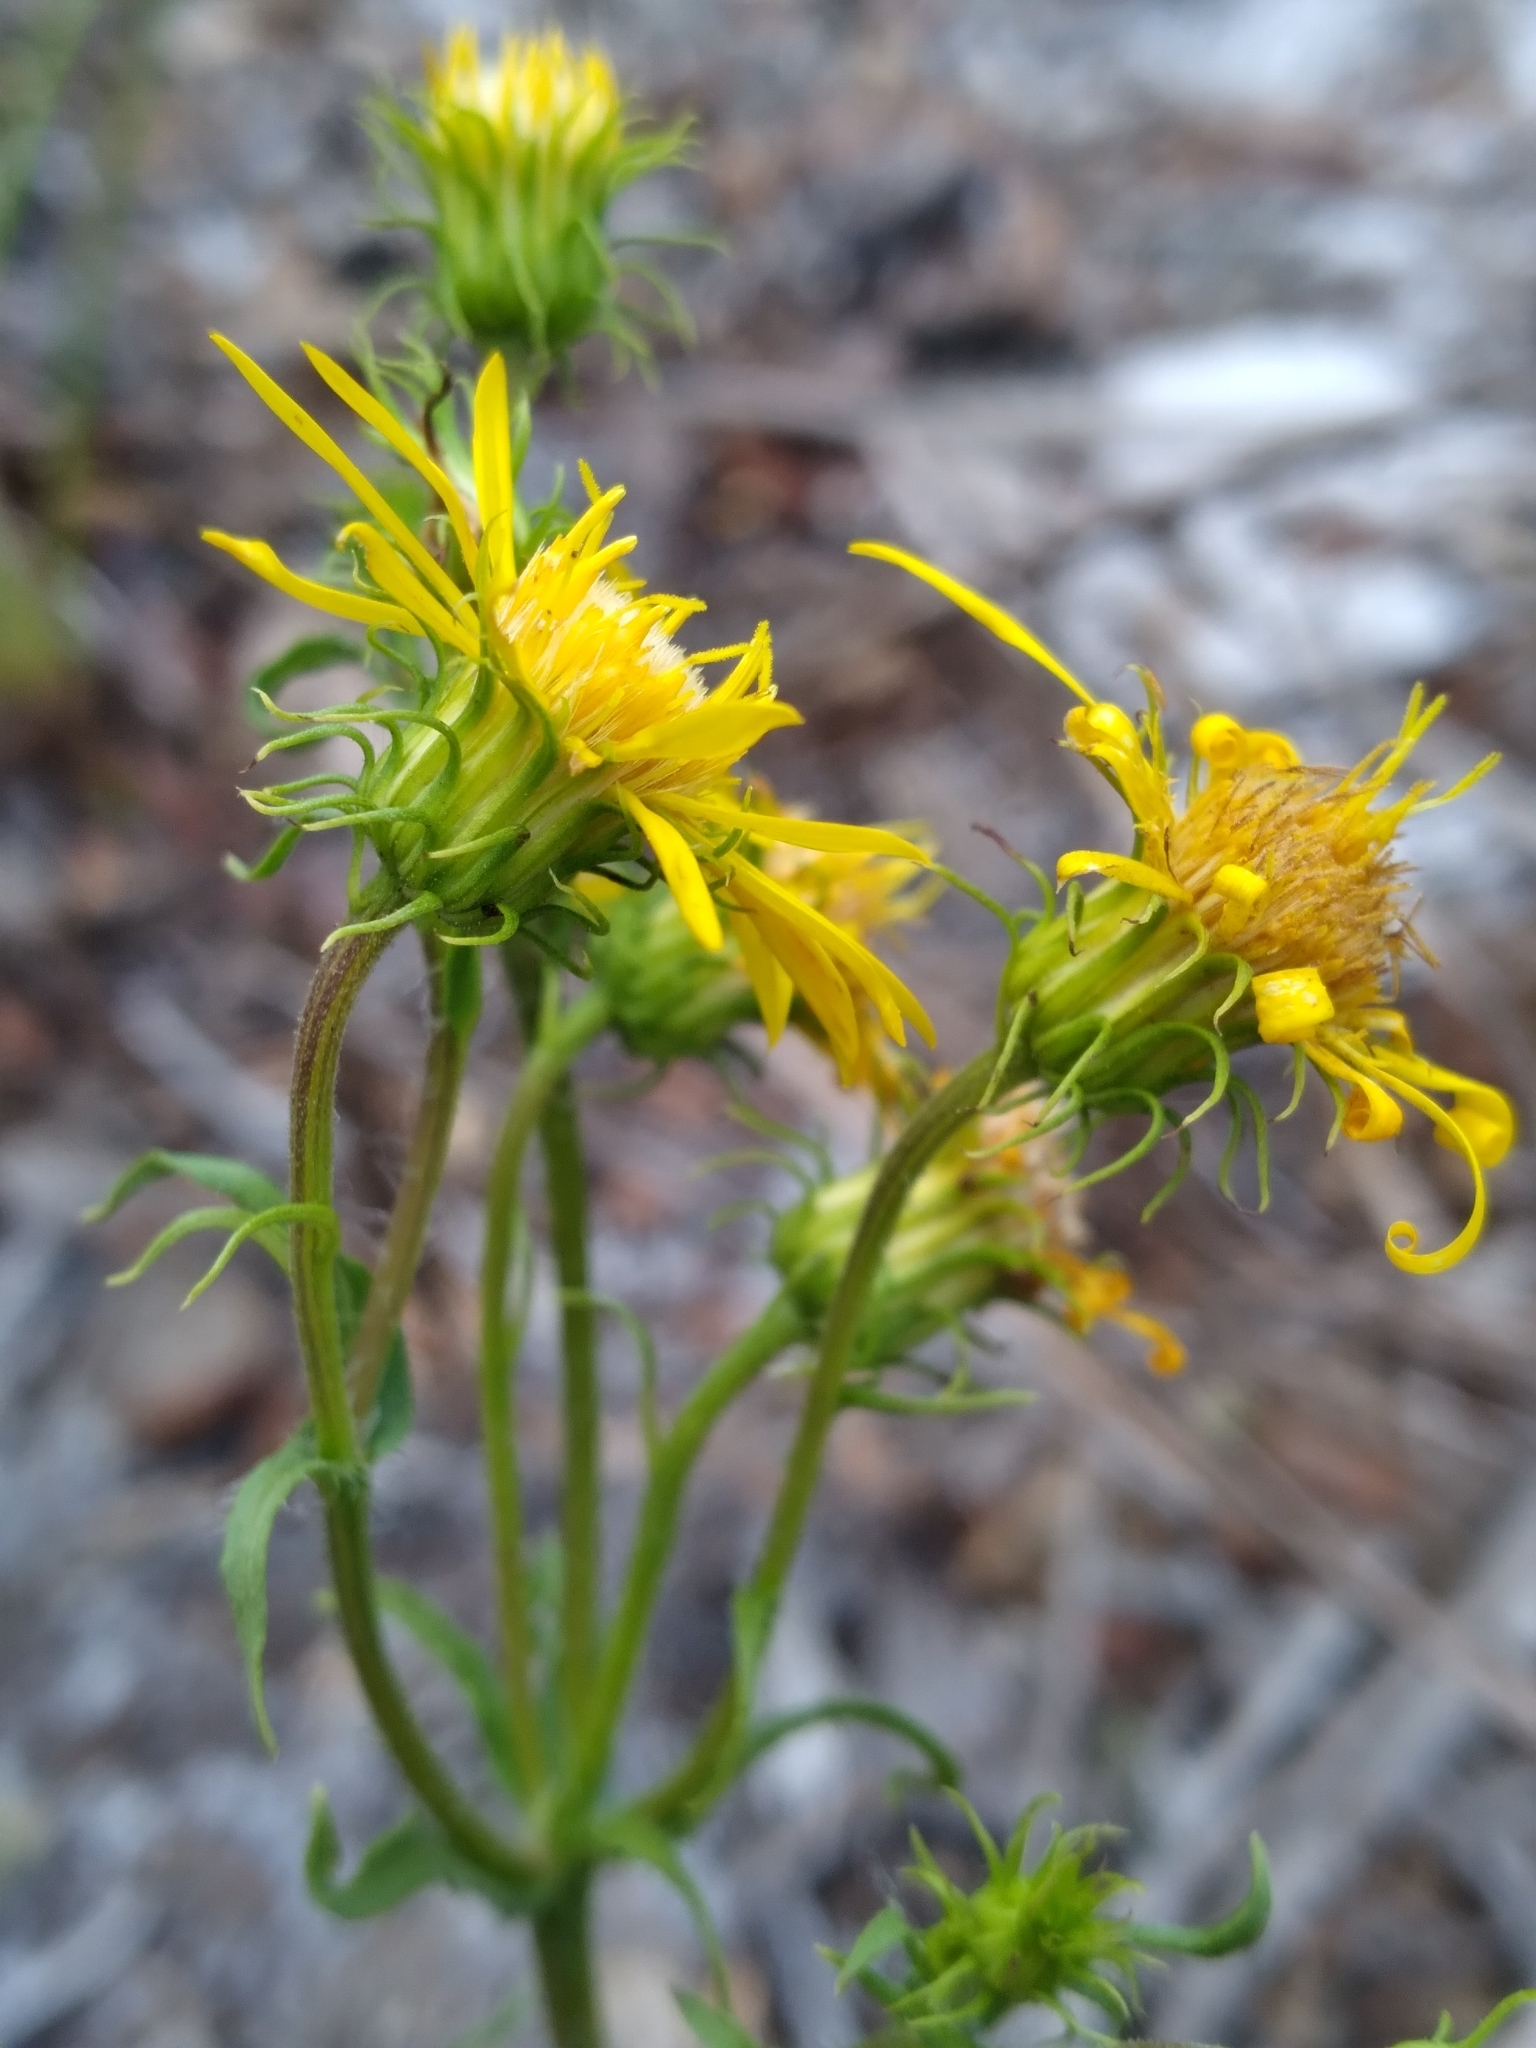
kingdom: Plantae
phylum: Tracheophyta
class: Magnoliopsida
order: Asterales
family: Asteraceae
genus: Chrysopsis
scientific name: Chrysopsis subulata
